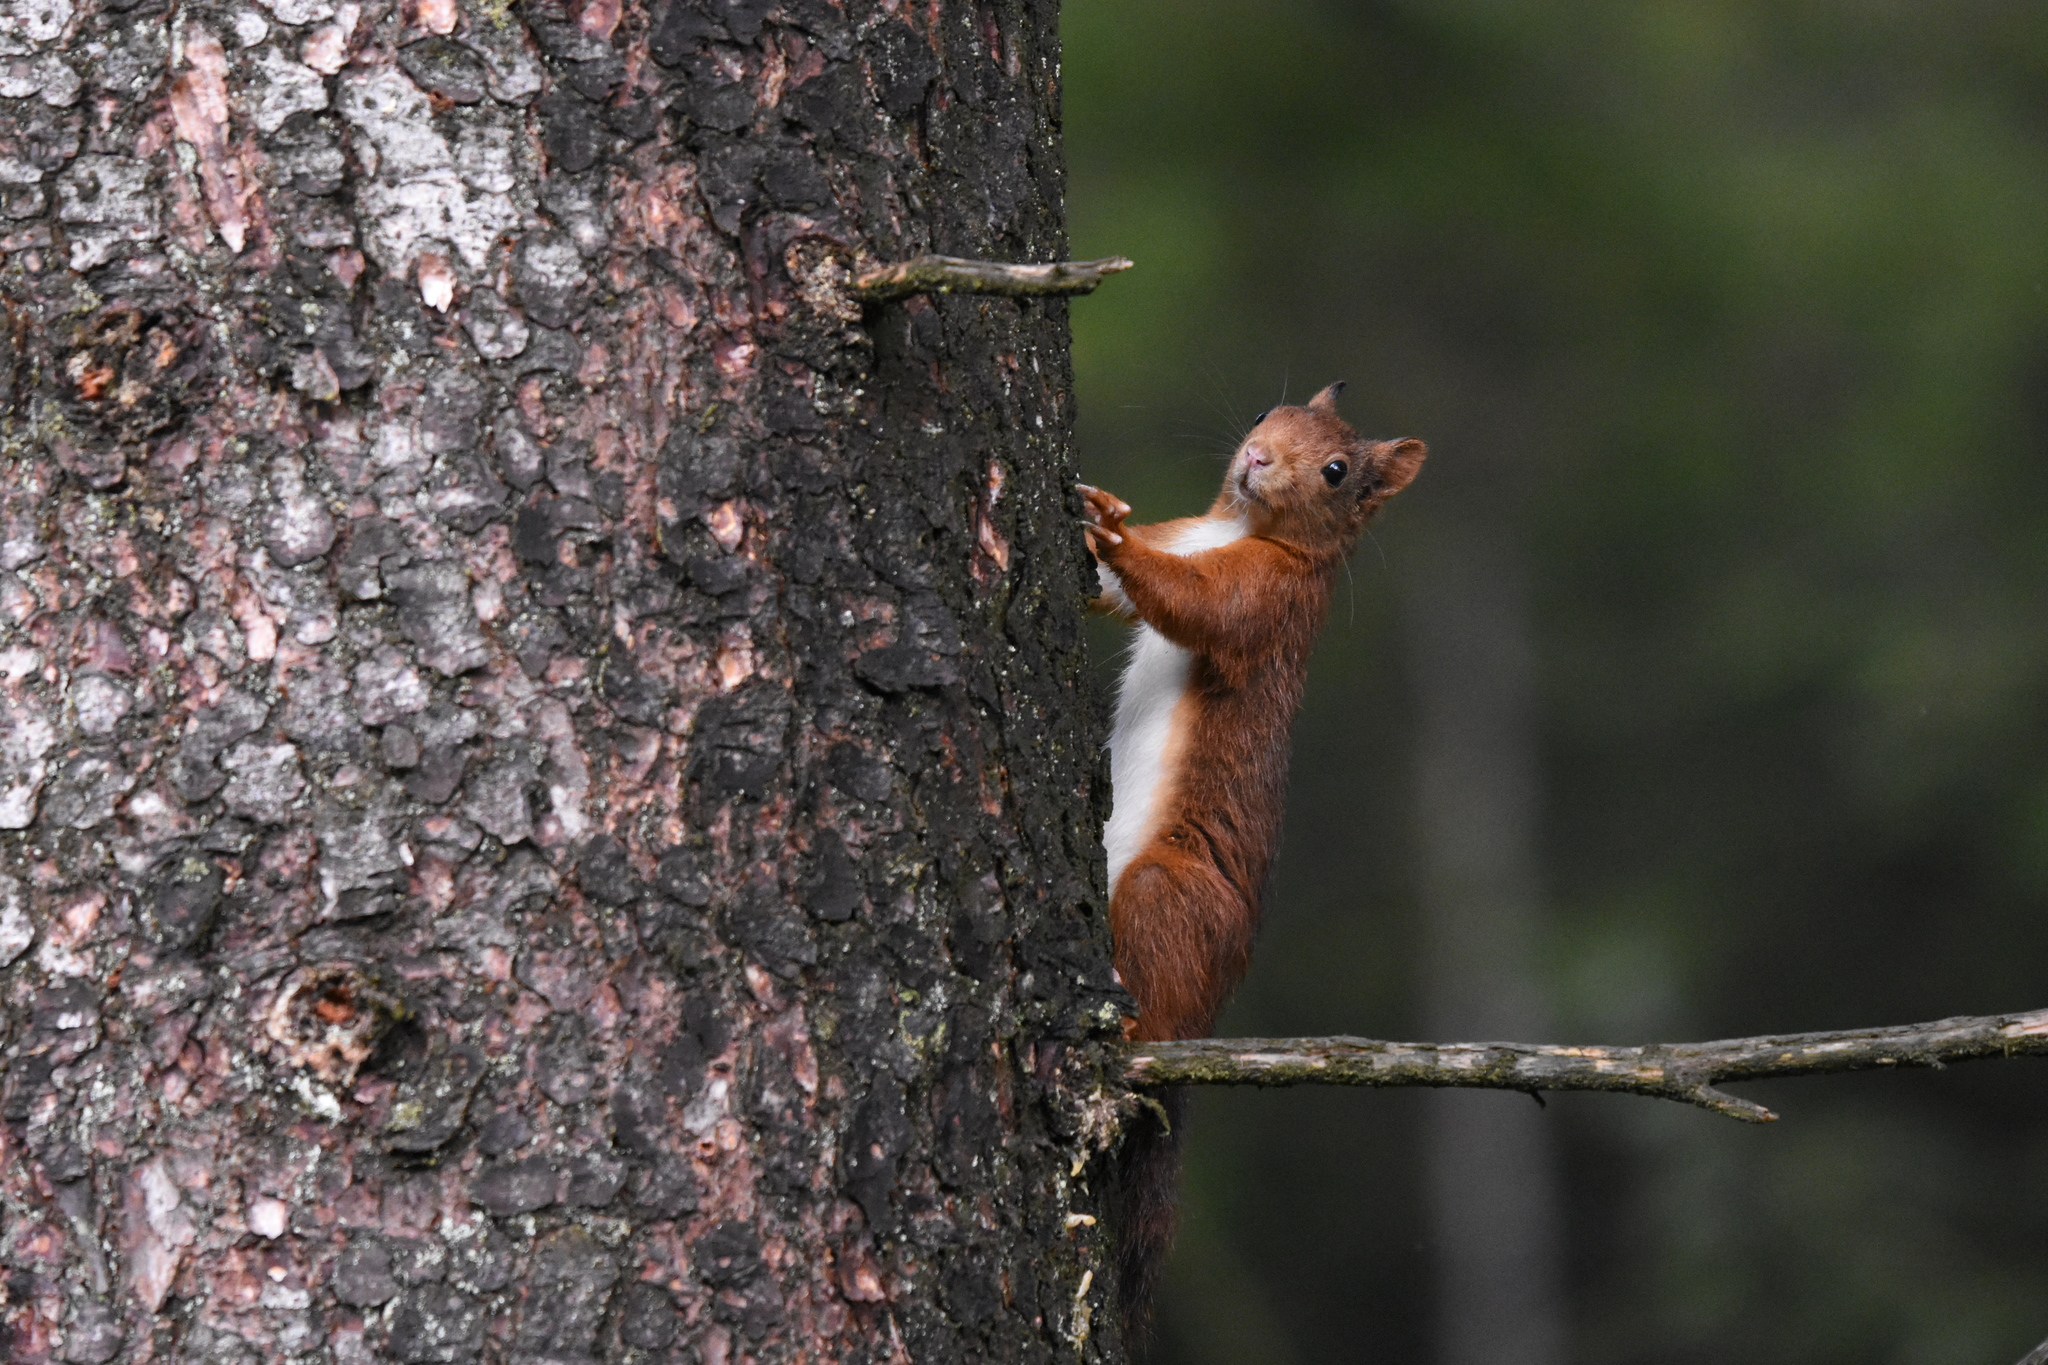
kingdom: Animalia
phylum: Chordata
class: Mammalia
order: Rodentia
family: Sciuridae
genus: Sciurus
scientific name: Sciurus vulgaris
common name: Eurasian red squirrel
